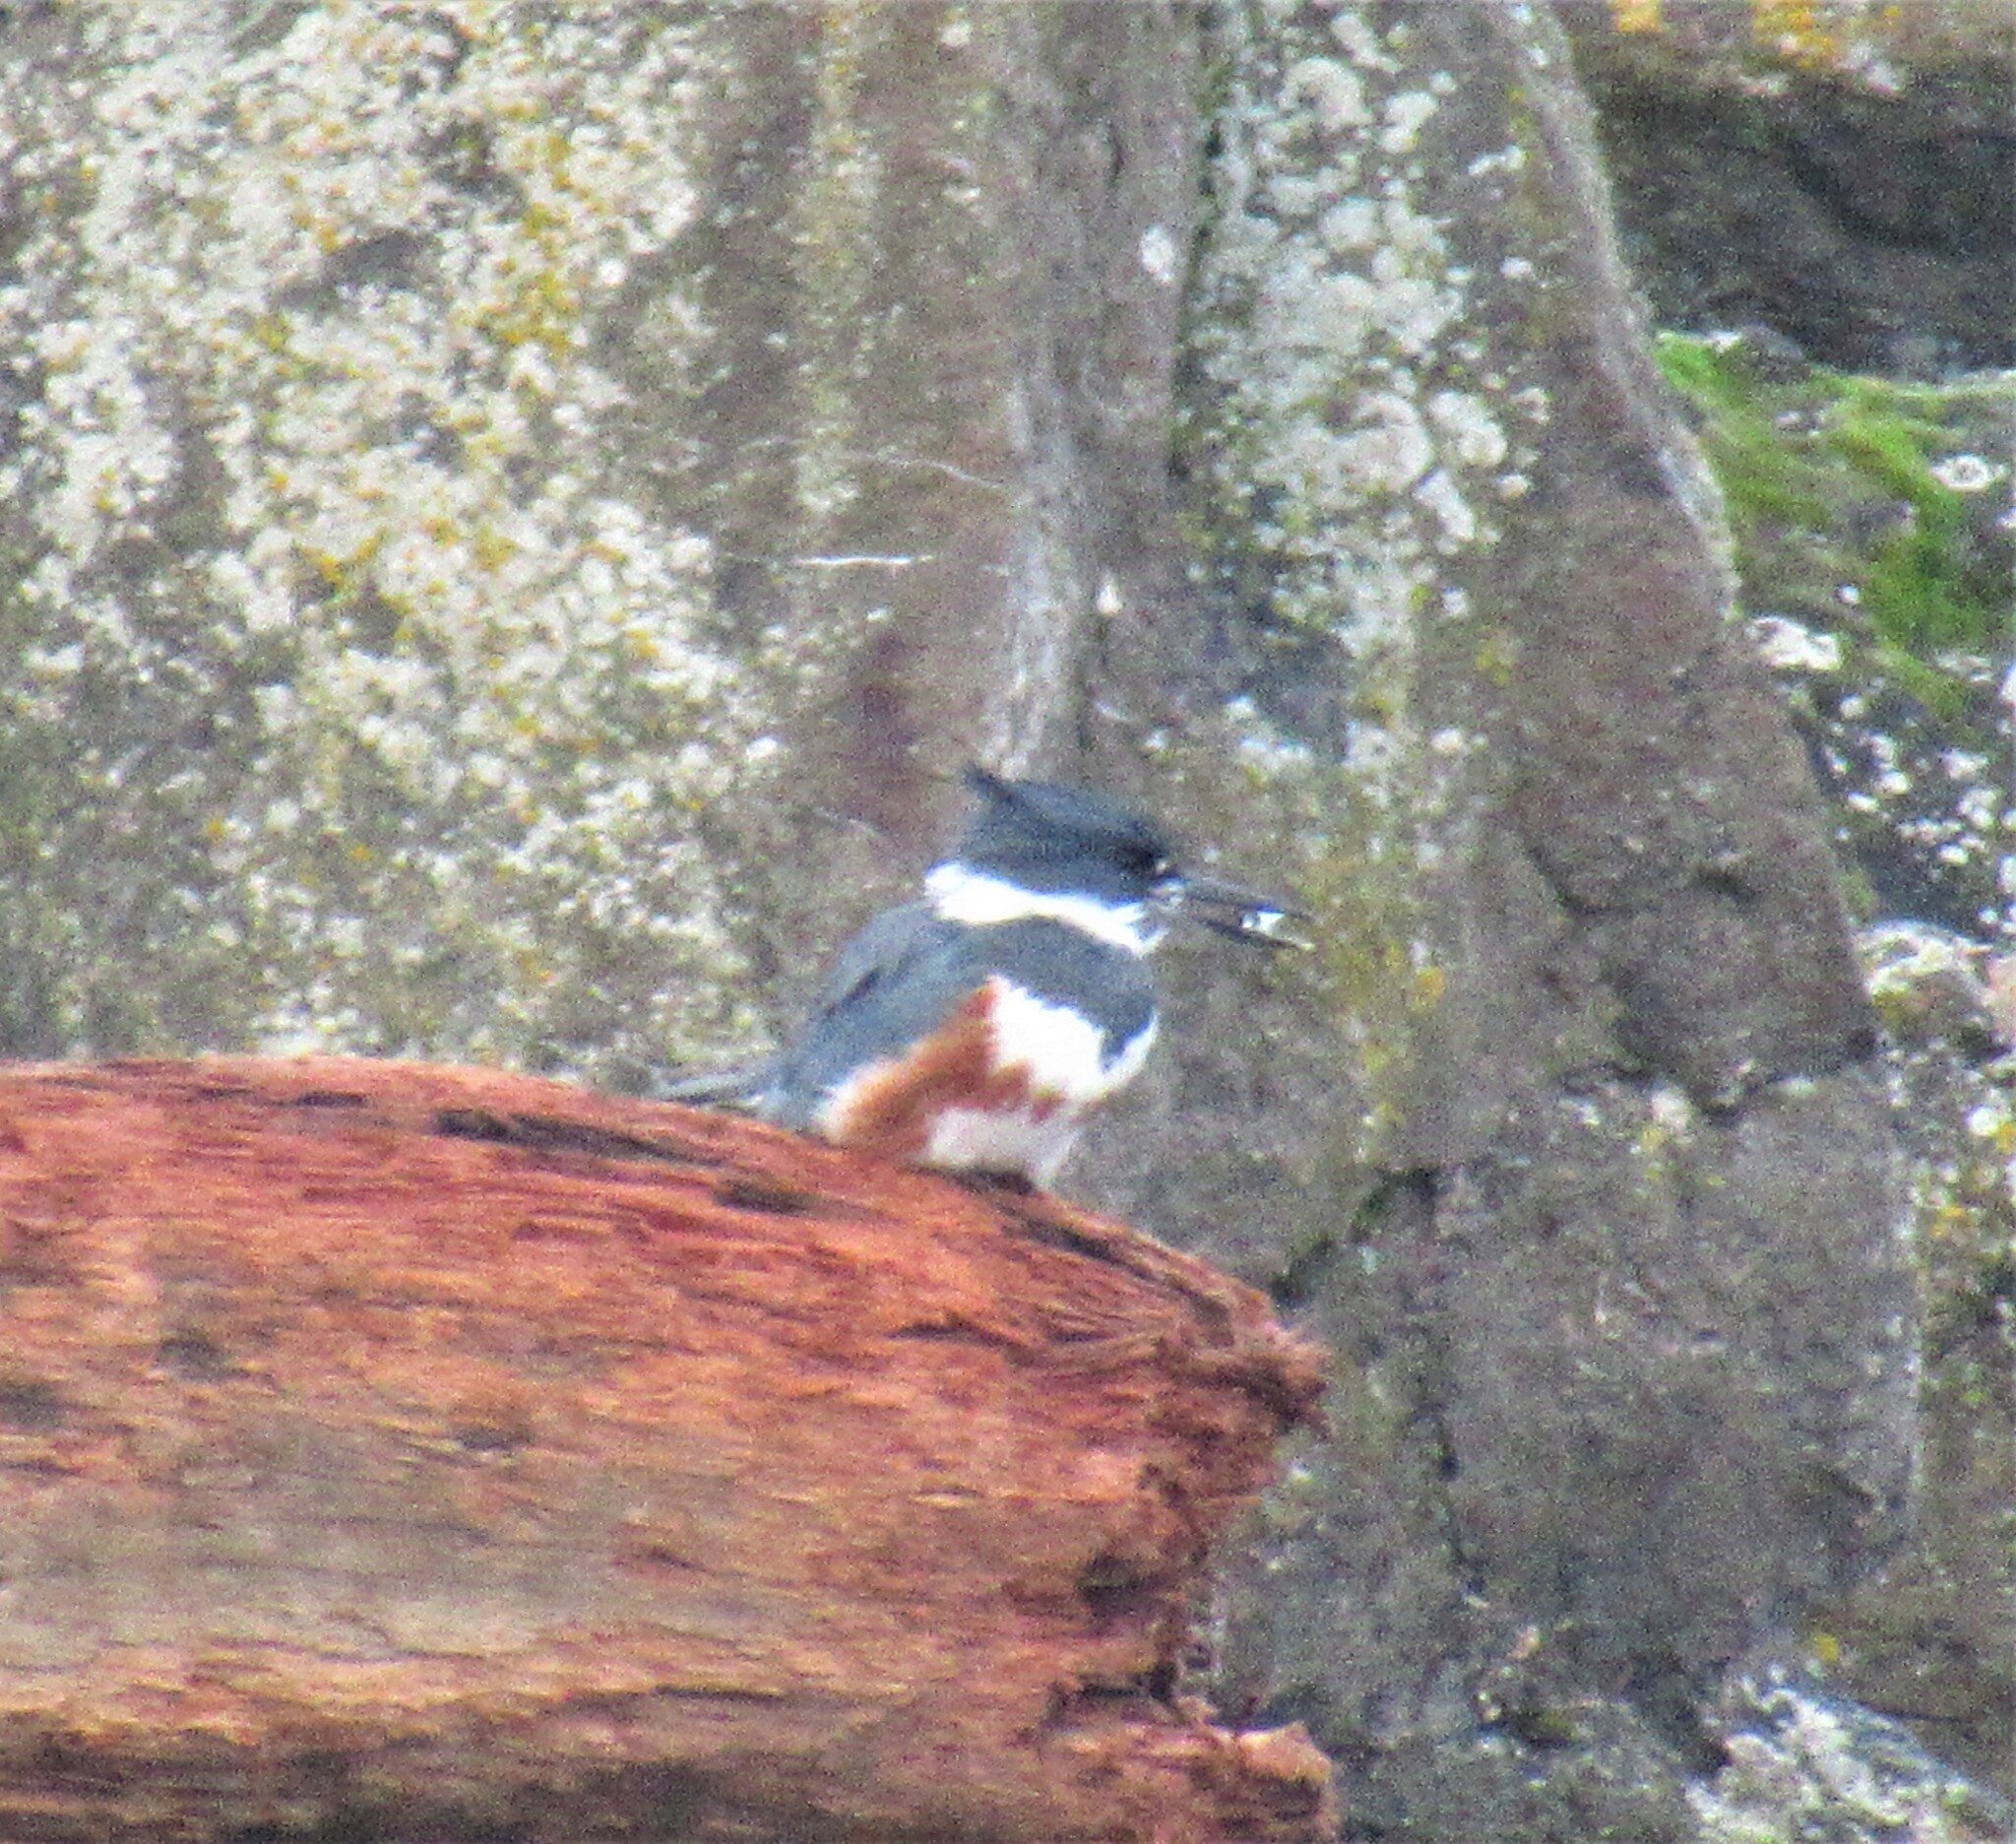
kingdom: Animalia
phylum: Chordata
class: Aves
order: Coraciiformes
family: Alcedinidae
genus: Megaceryle
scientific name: Megaceryle alcyon
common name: Belted kingfisher
